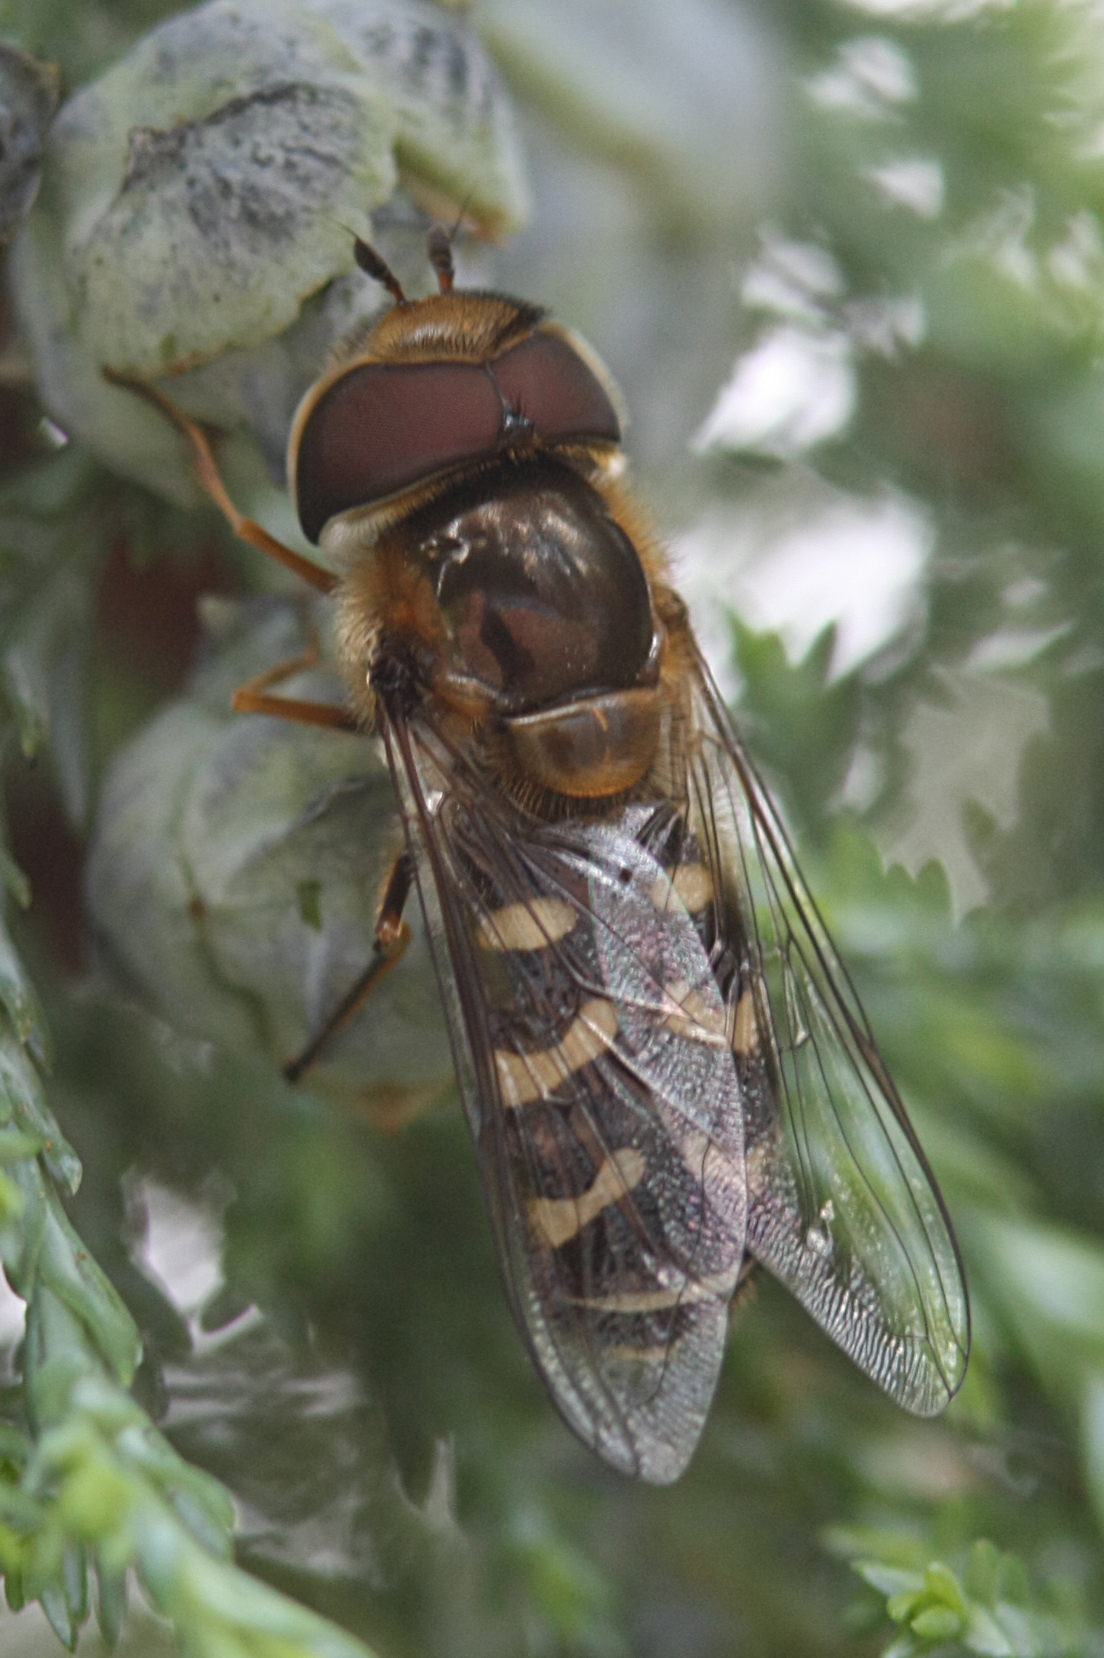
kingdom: Animalia
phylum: Arthropoda
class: Insecta
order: Diptera
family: Syrphidae
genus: Scaeva
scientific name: Scaeva pyrastri
